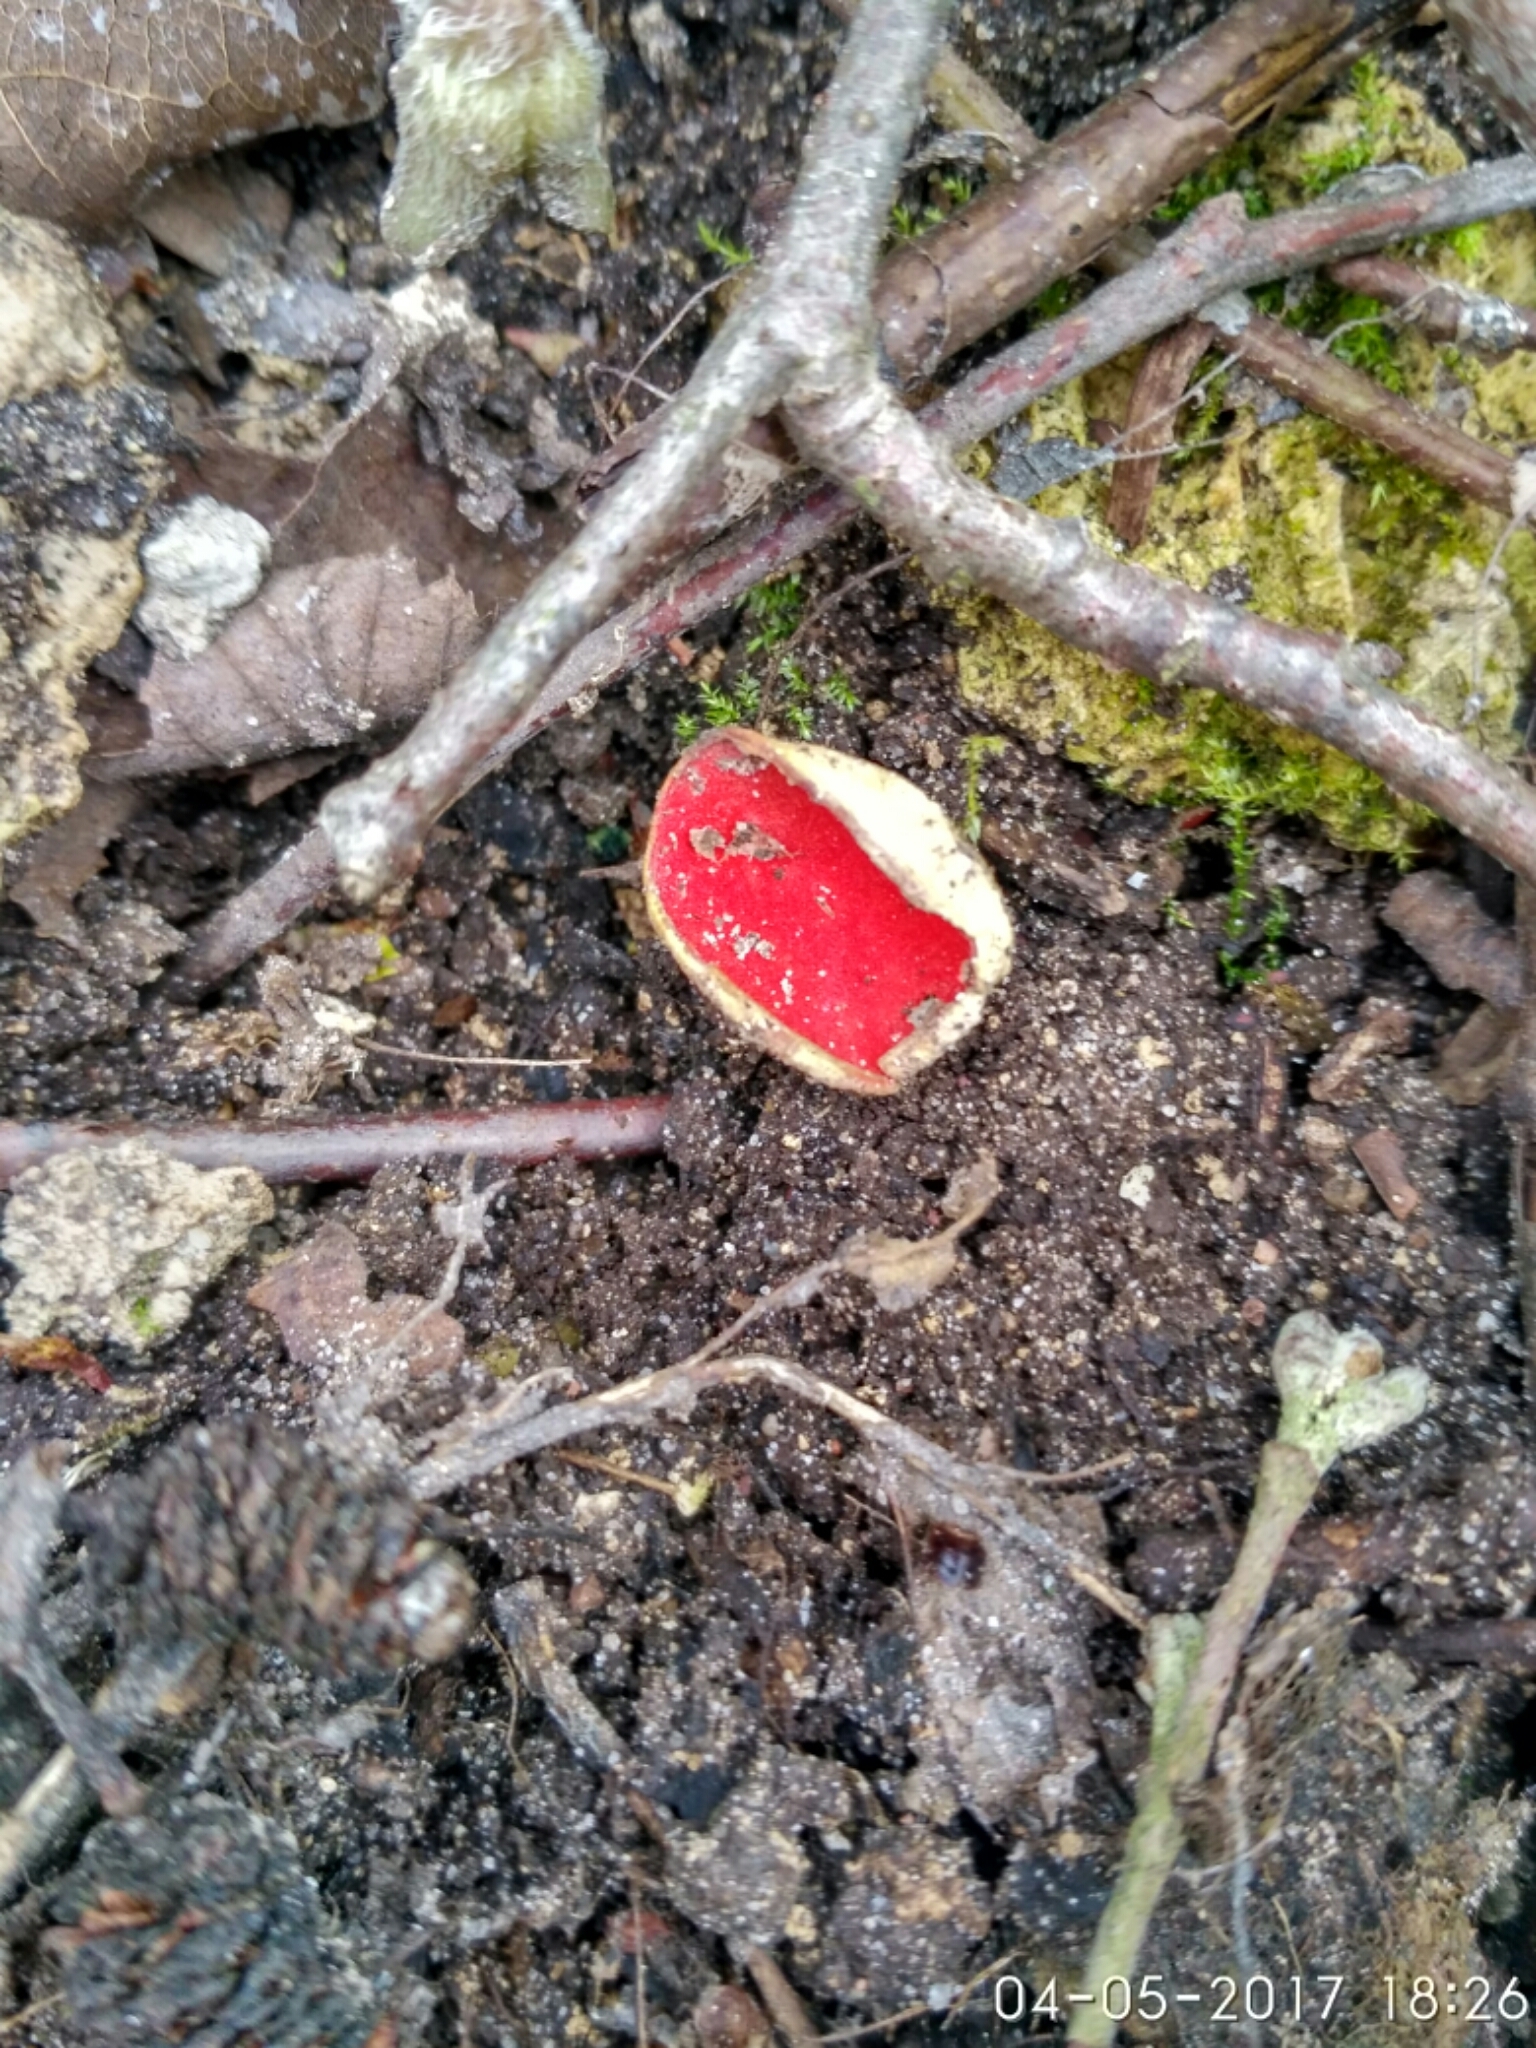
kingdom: Fungi
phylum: Ascomycota
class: Pezizomycetes
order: Pezizales
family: Sarcoscyphaceae
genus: Sarcoscypha
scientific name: Sarcoscypha austriaca
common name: Scarlet elfcup
